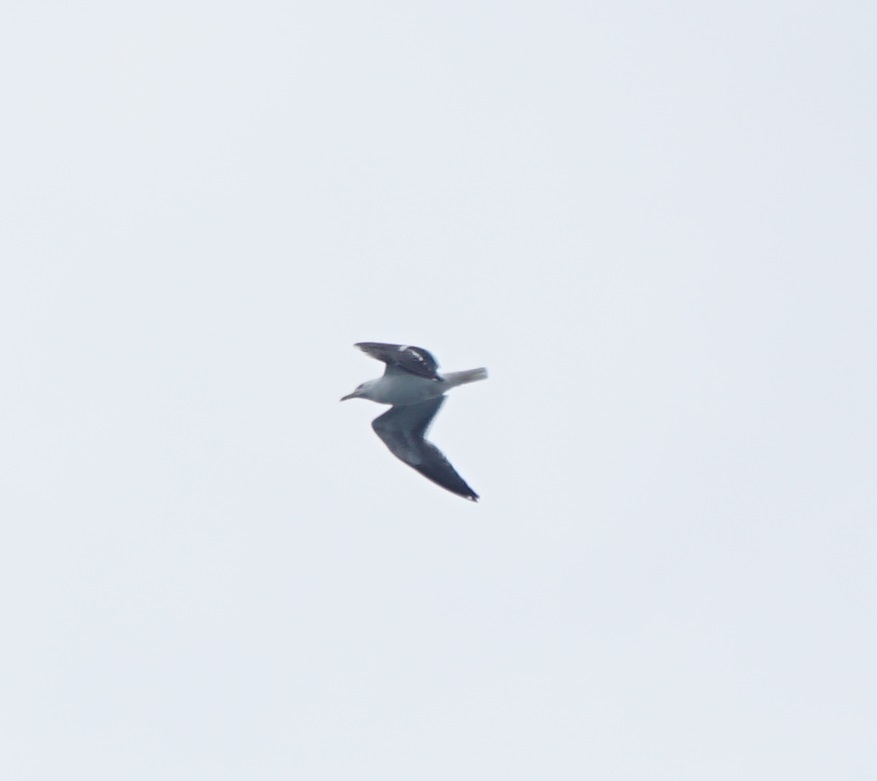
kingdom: Animalia
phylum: Chordata
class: Aves
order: Charadriiformes
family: Laridae
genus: Larus
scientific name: Larus fuscus
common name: Lesser black-backed gull
